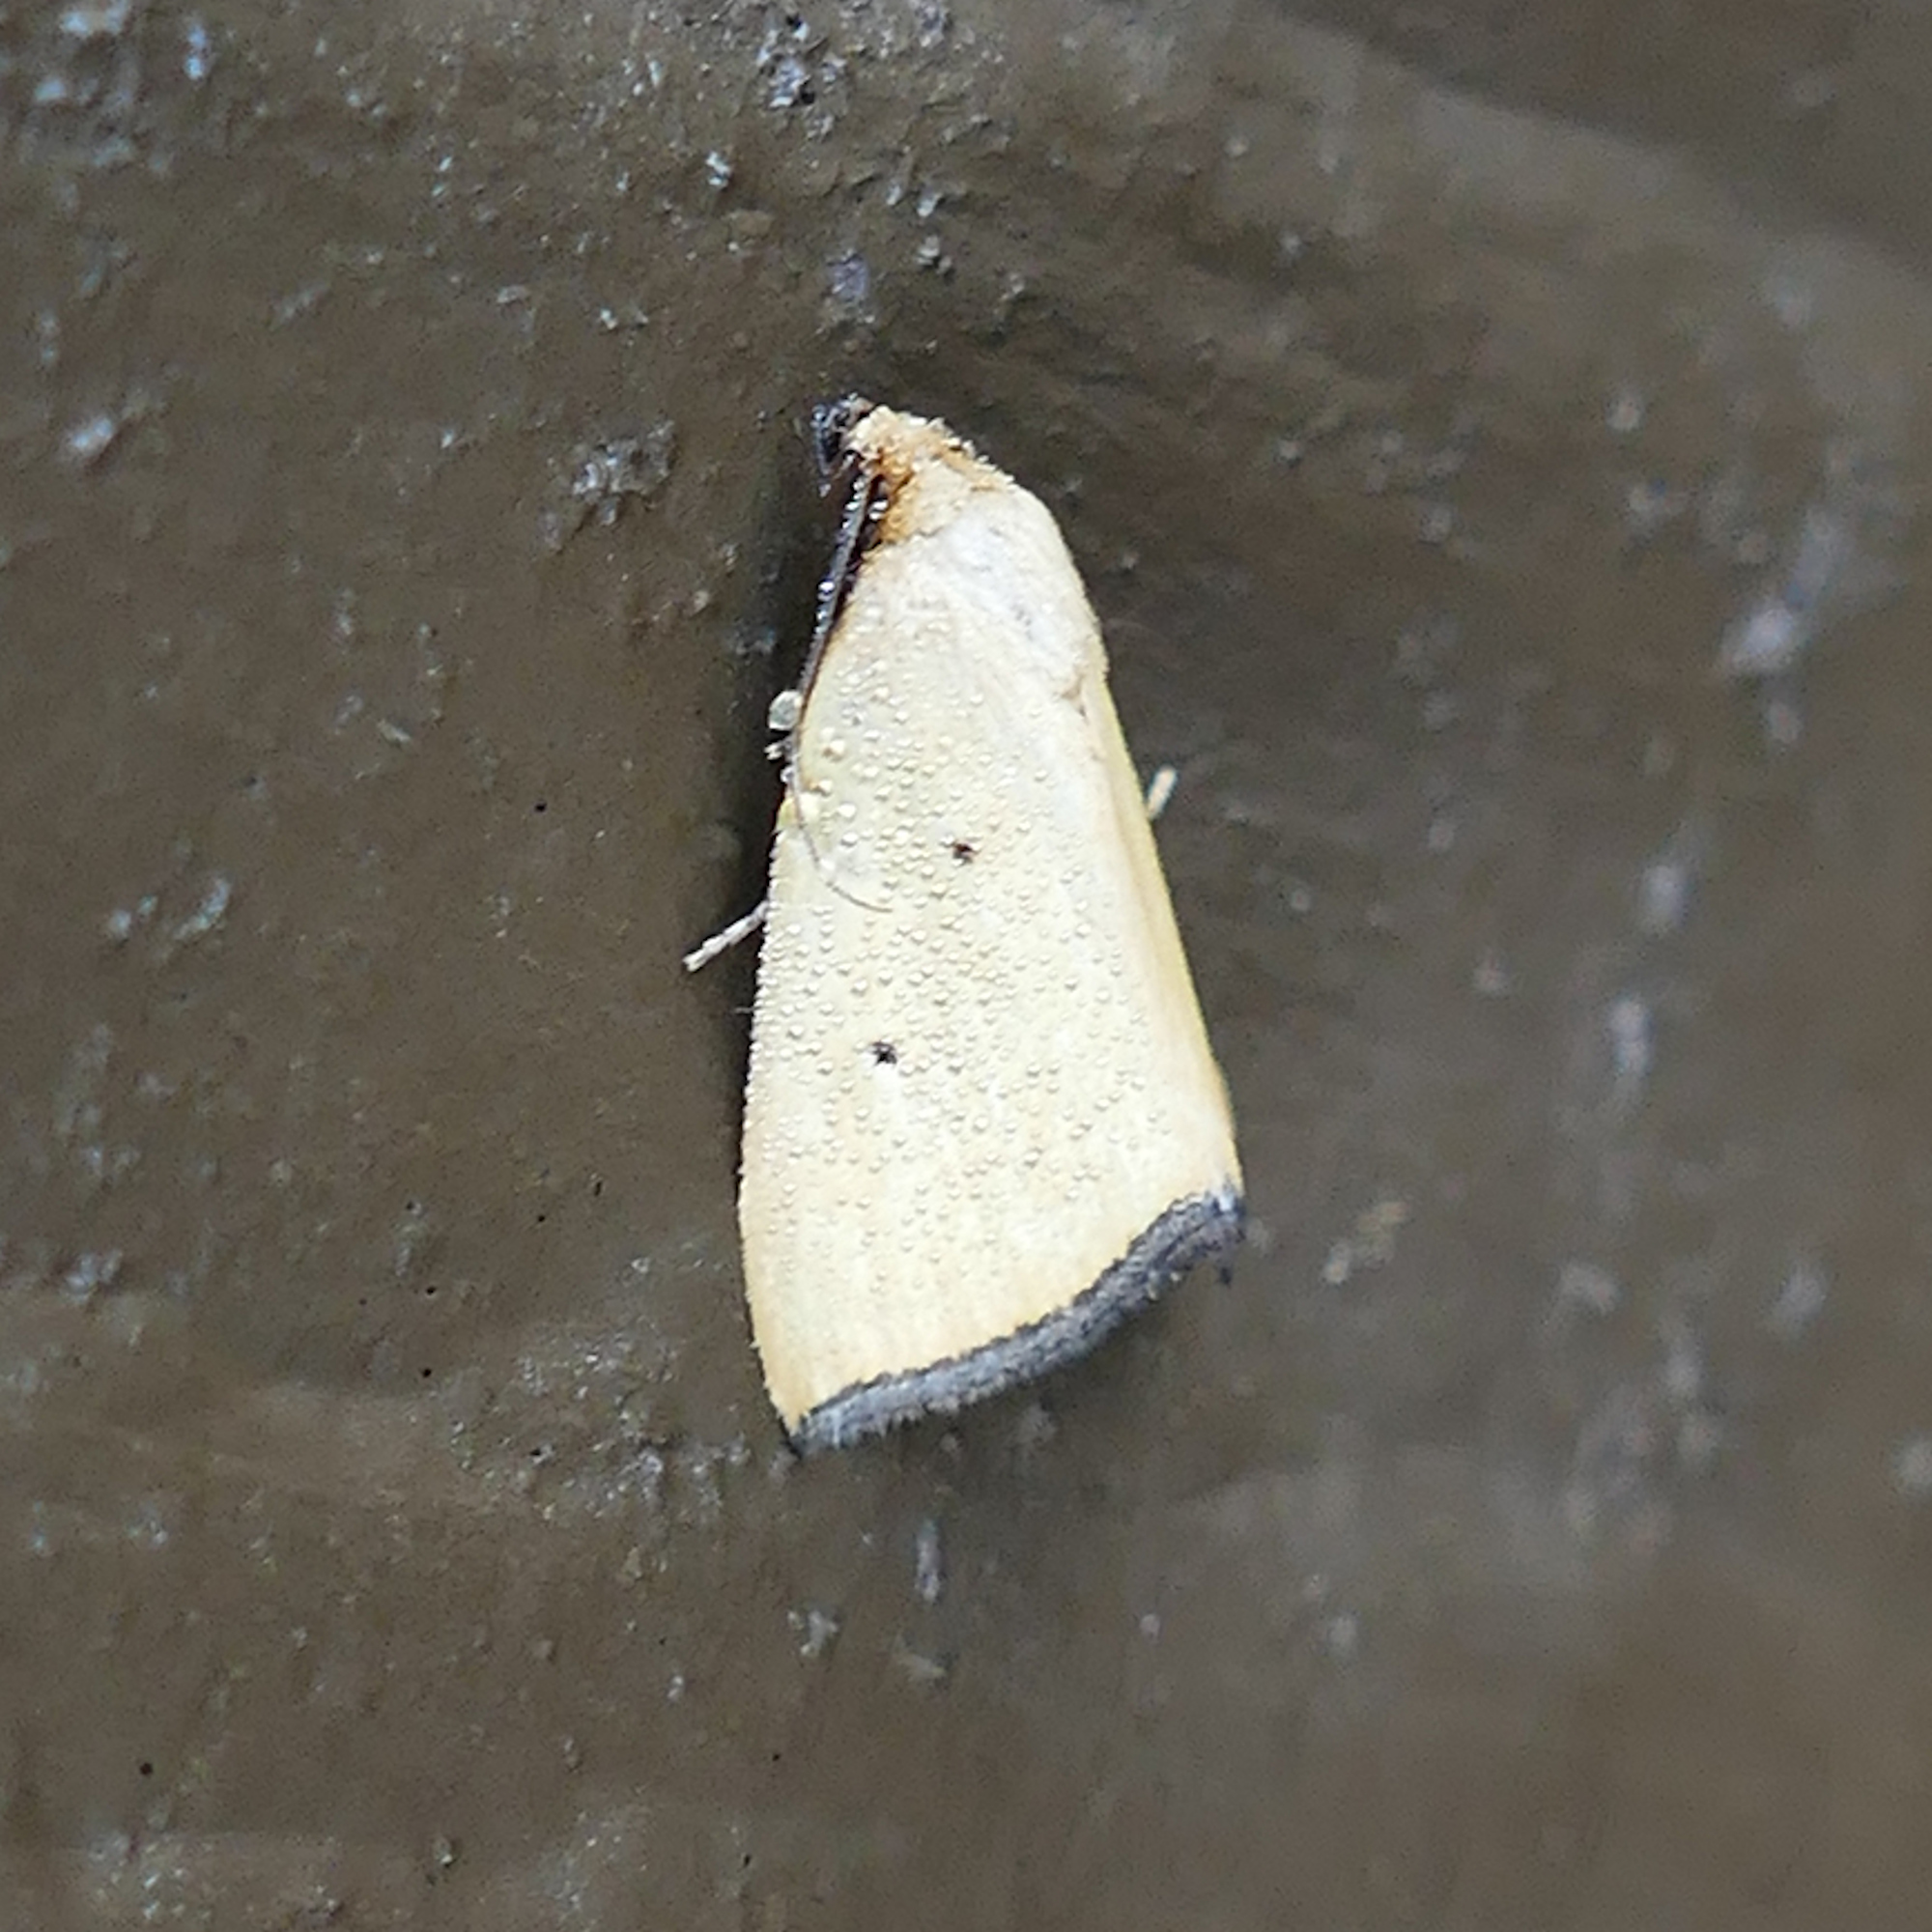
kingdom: Animalia
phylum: Arthropoda
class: Insecta
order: Lepidoptera
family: Noctuidae
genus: Marimatha
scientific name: Marimatha nigrofimbria
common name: Black-bordered lemon moth
